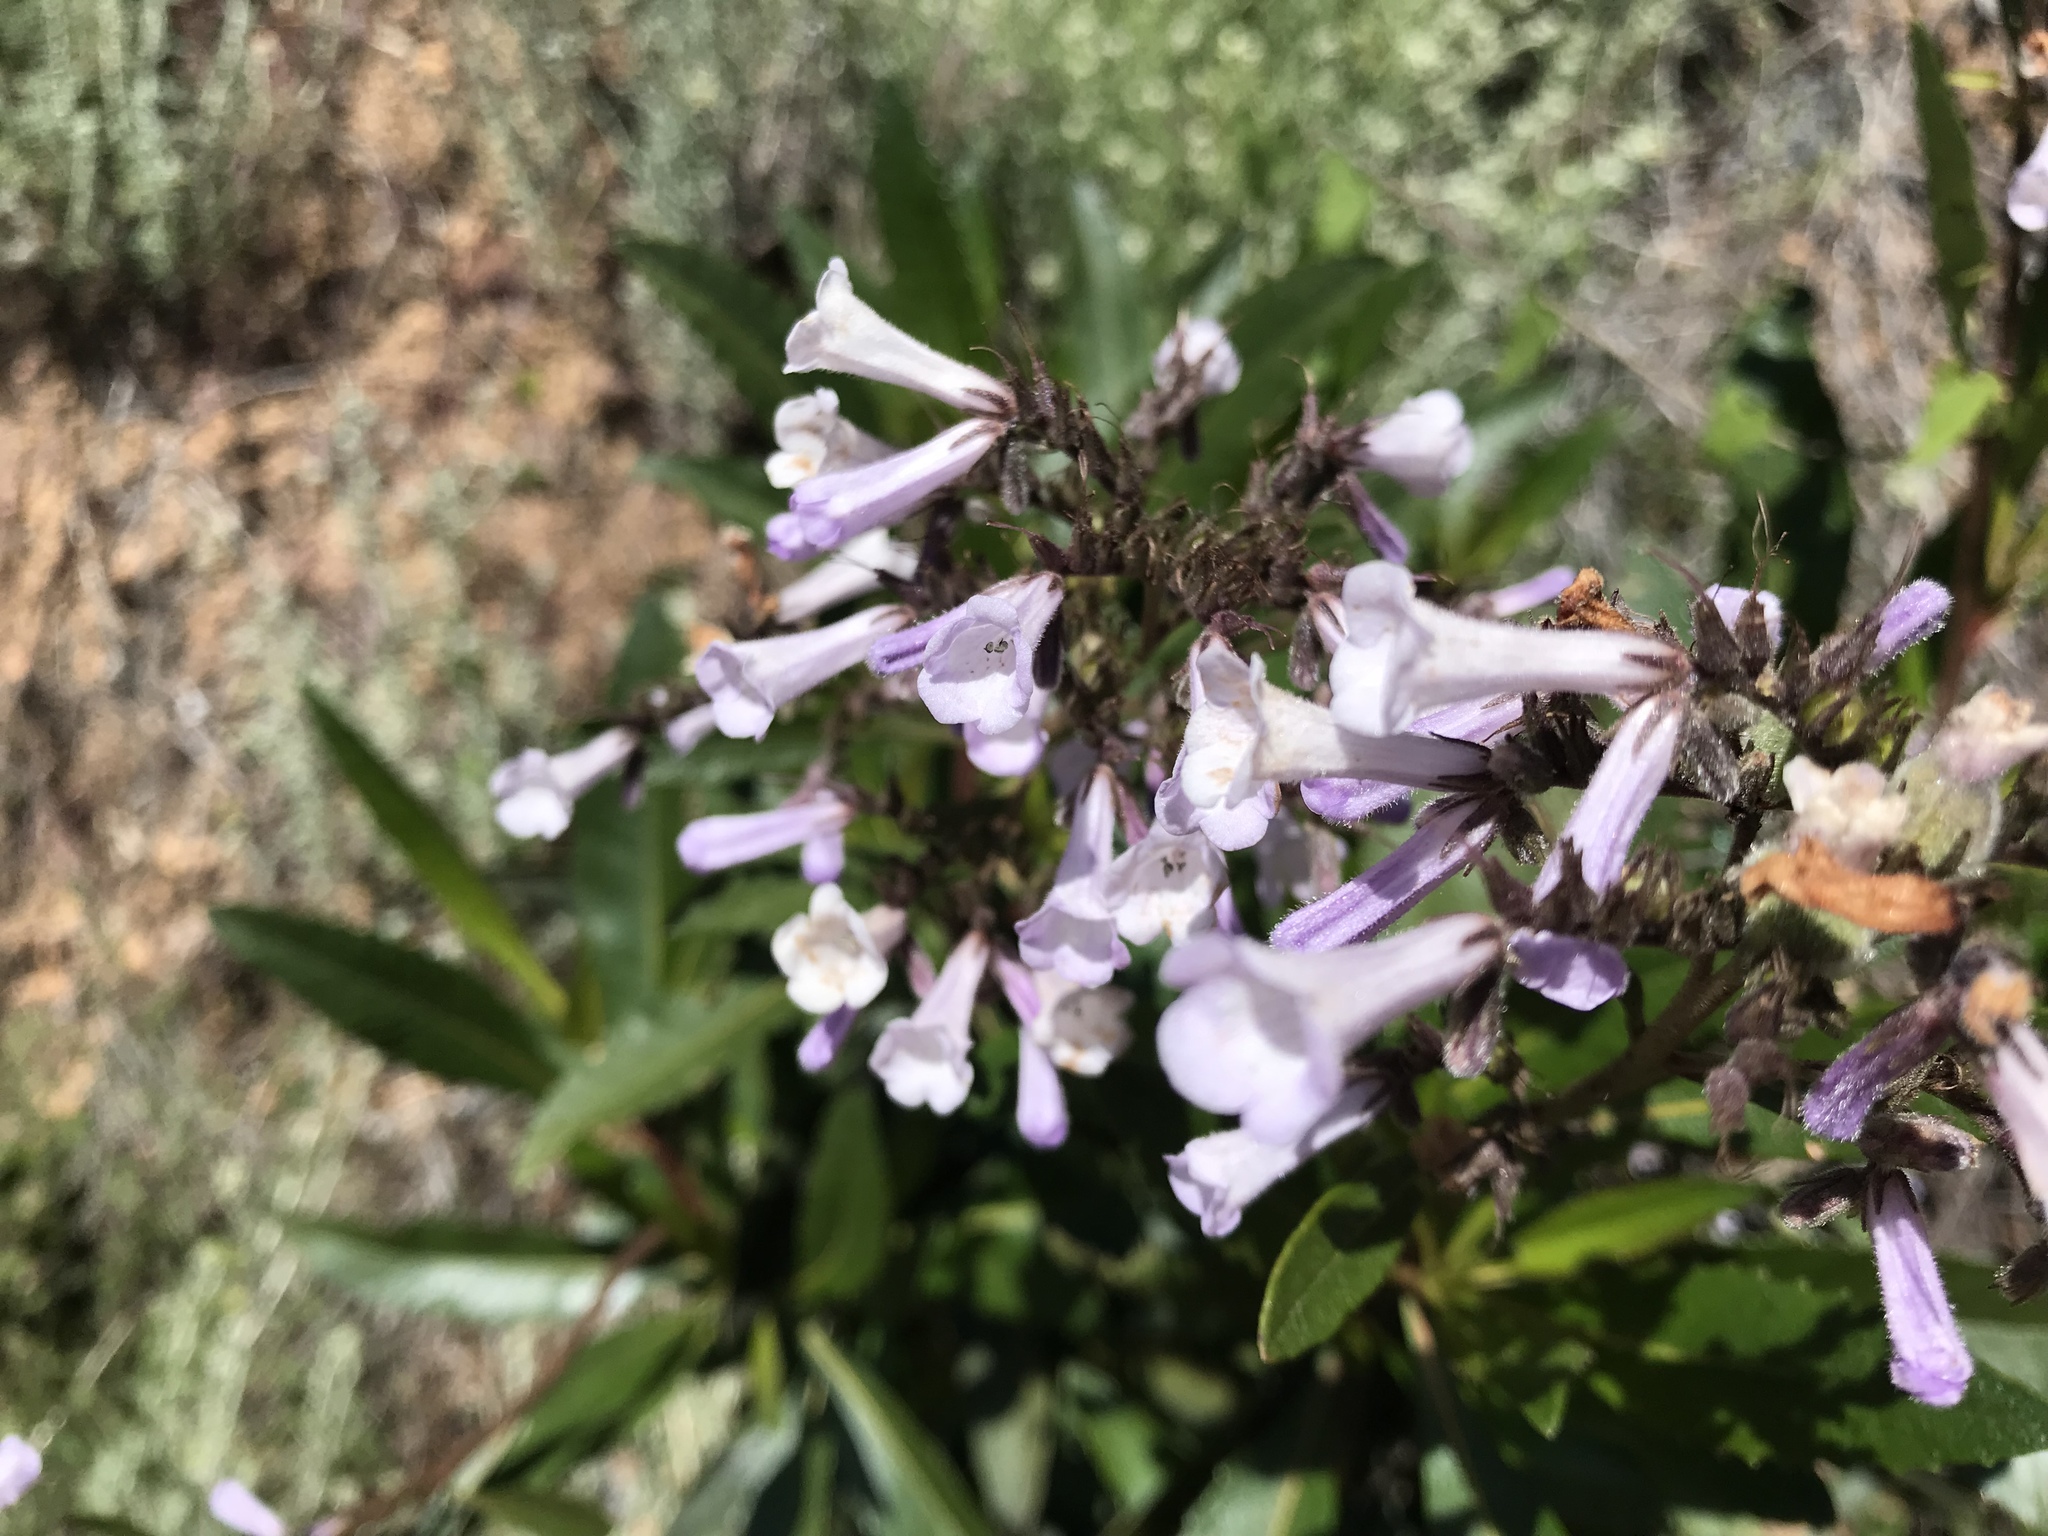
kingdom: Plantae
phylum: Tracheophyta
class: Magnoliopsida
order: Boraginales
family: Namaceae
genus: Eriodictyon
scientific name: Eriodictyon californicum
